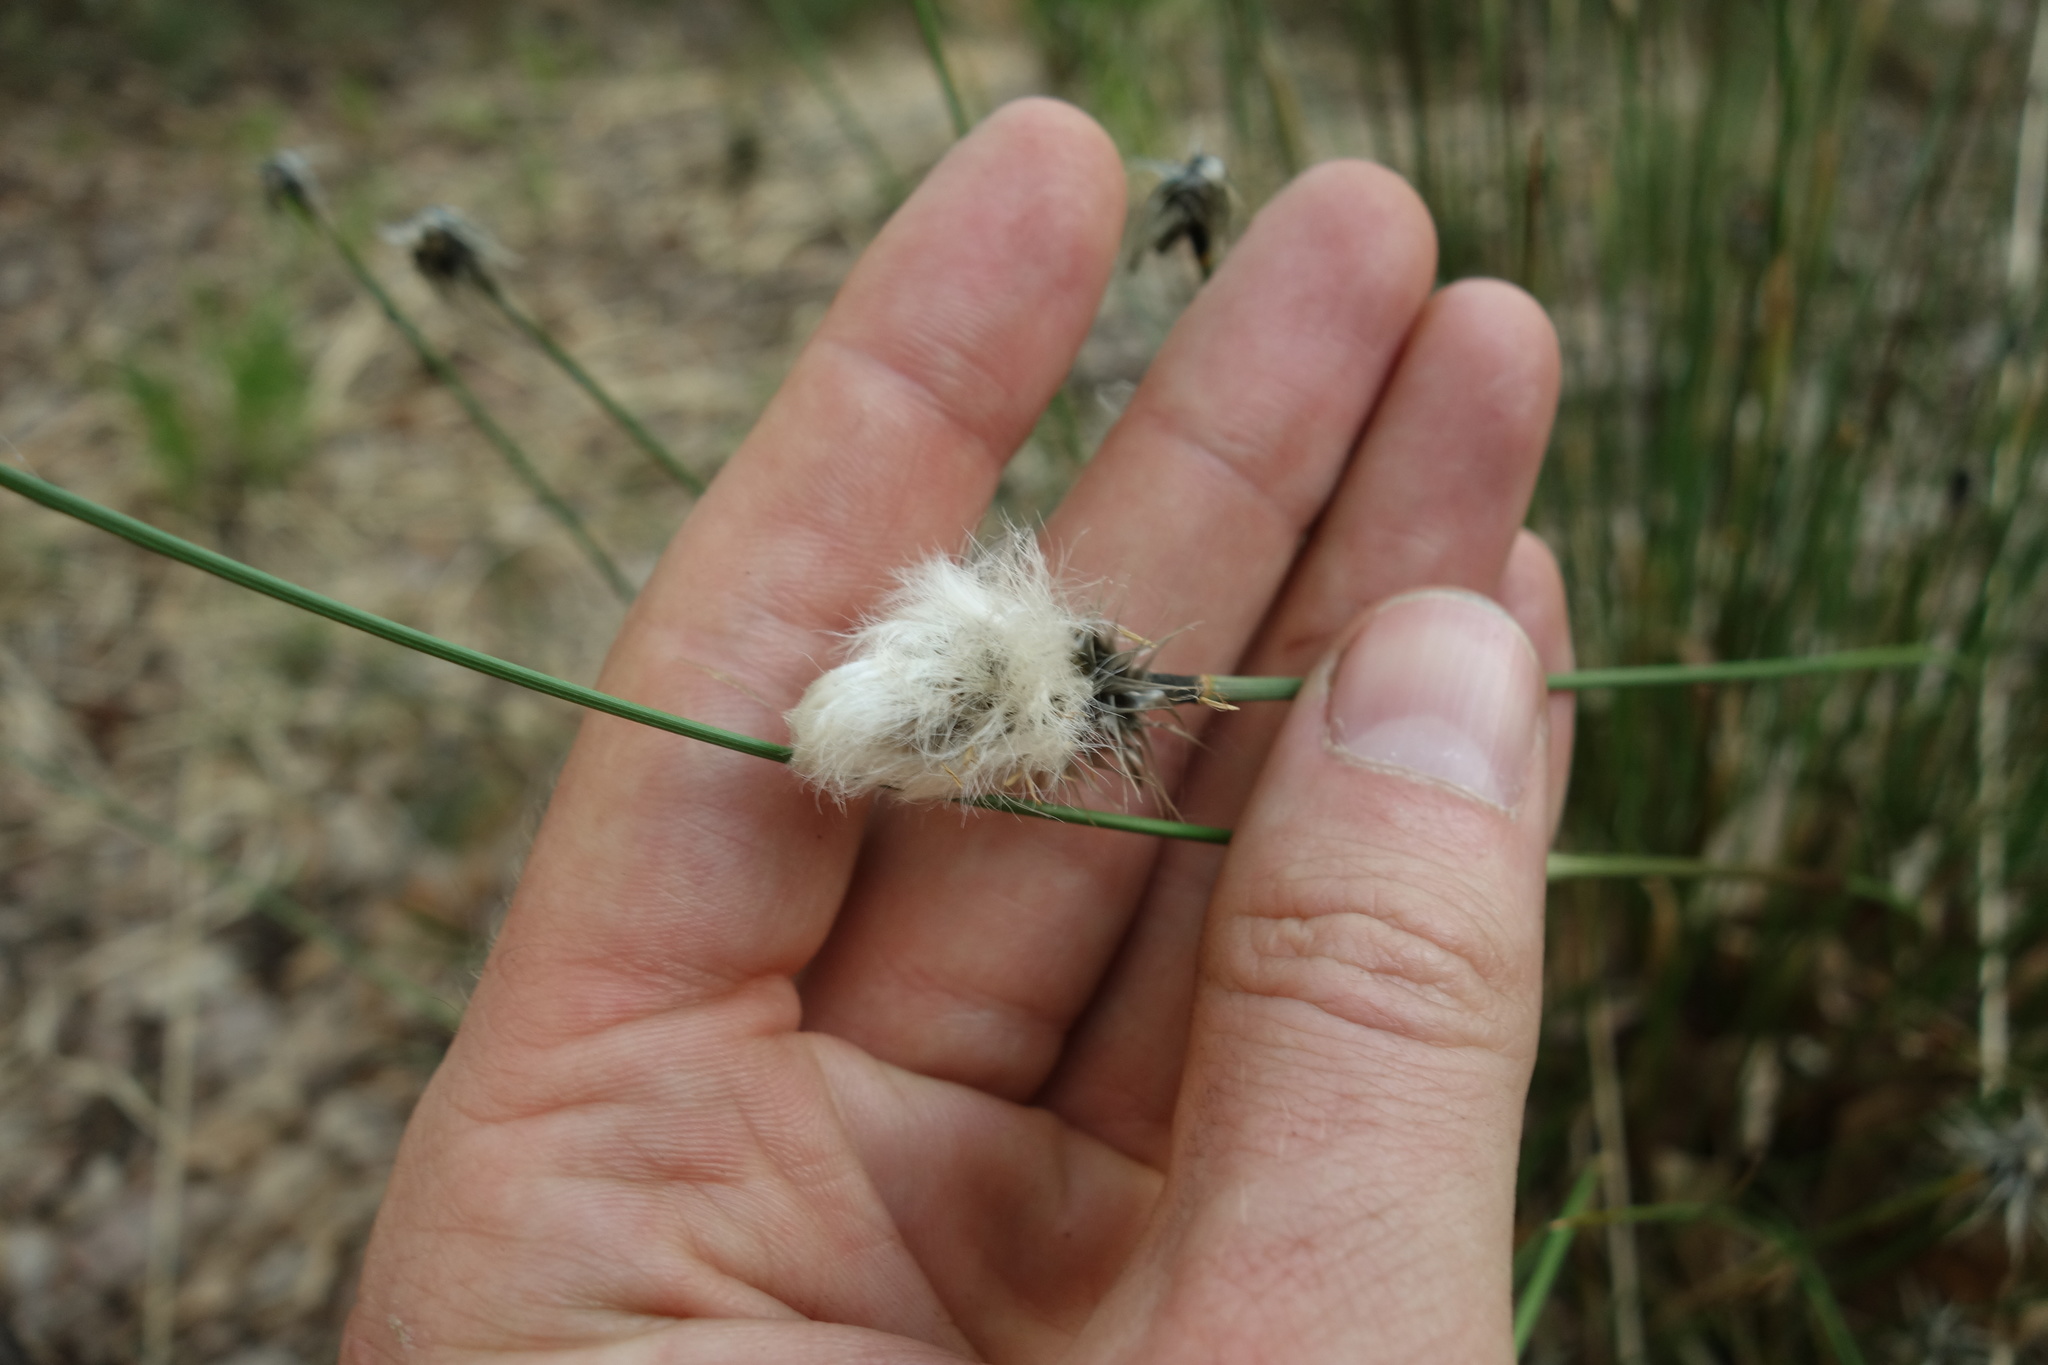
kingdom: Plantae
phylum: Tracheophyta
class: Liliopsida
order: Poales
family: Cyperaceae
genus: Eriophorum
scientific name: Eriophorum vaginatum
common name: Hare's-tail cottongrass
